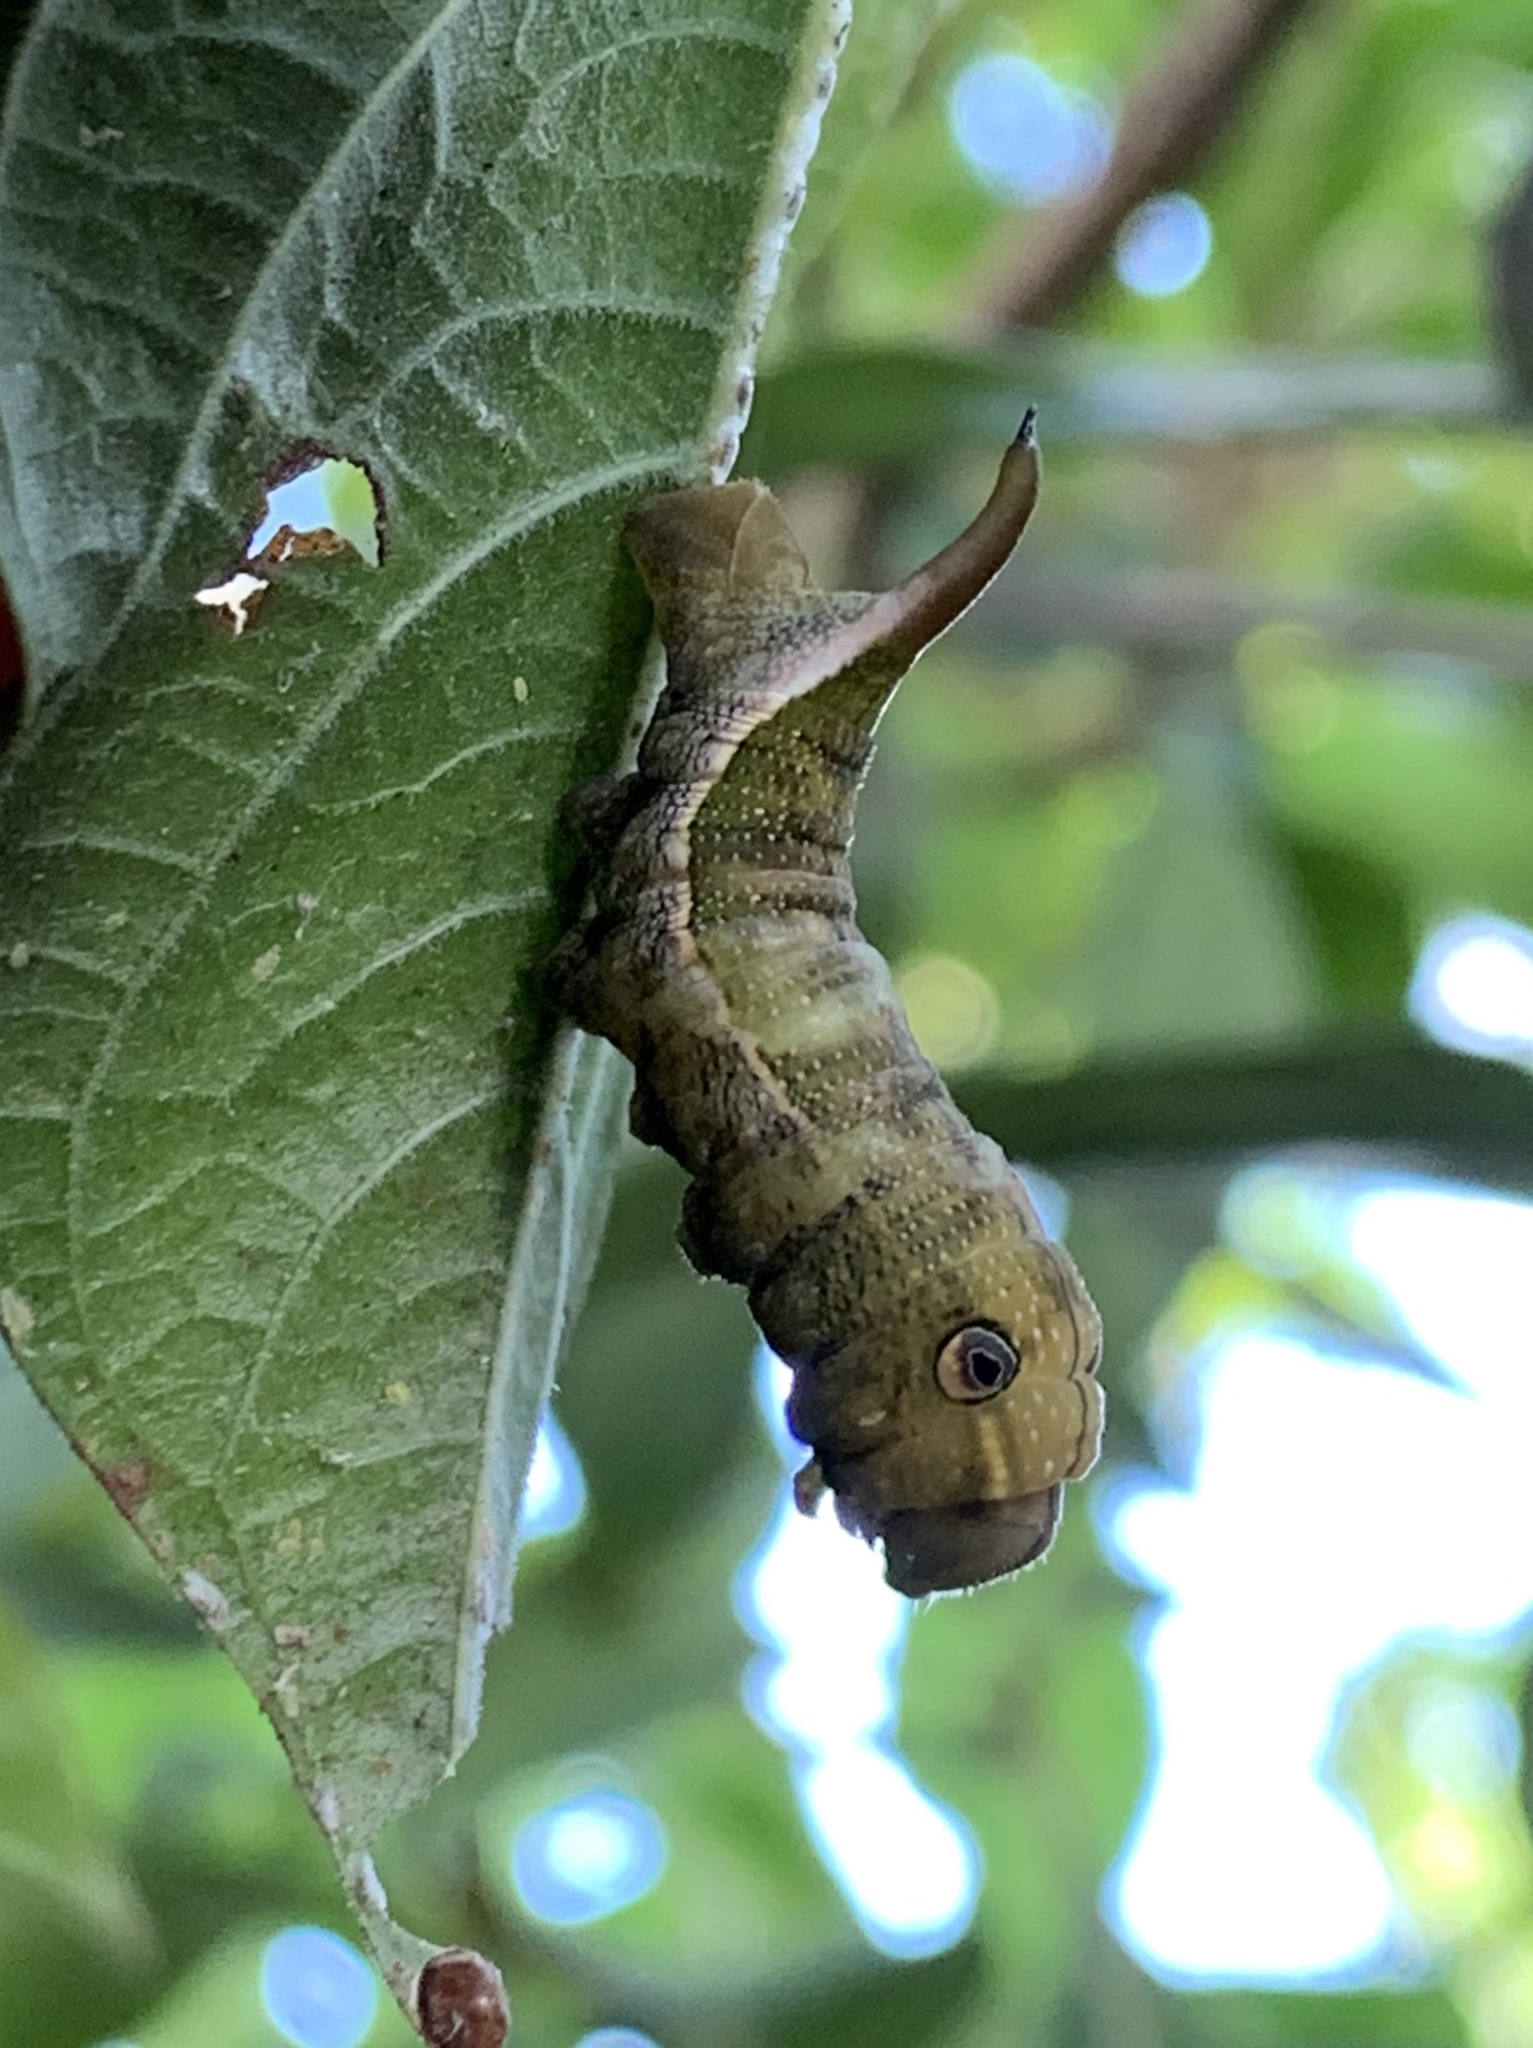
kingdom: Animalia
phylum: Arthropoda
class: Insecta
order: Lepidoptera
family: Sphingidae
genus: Xylophanes
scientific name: Xylophanes pluto
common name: Pluto sphinx
